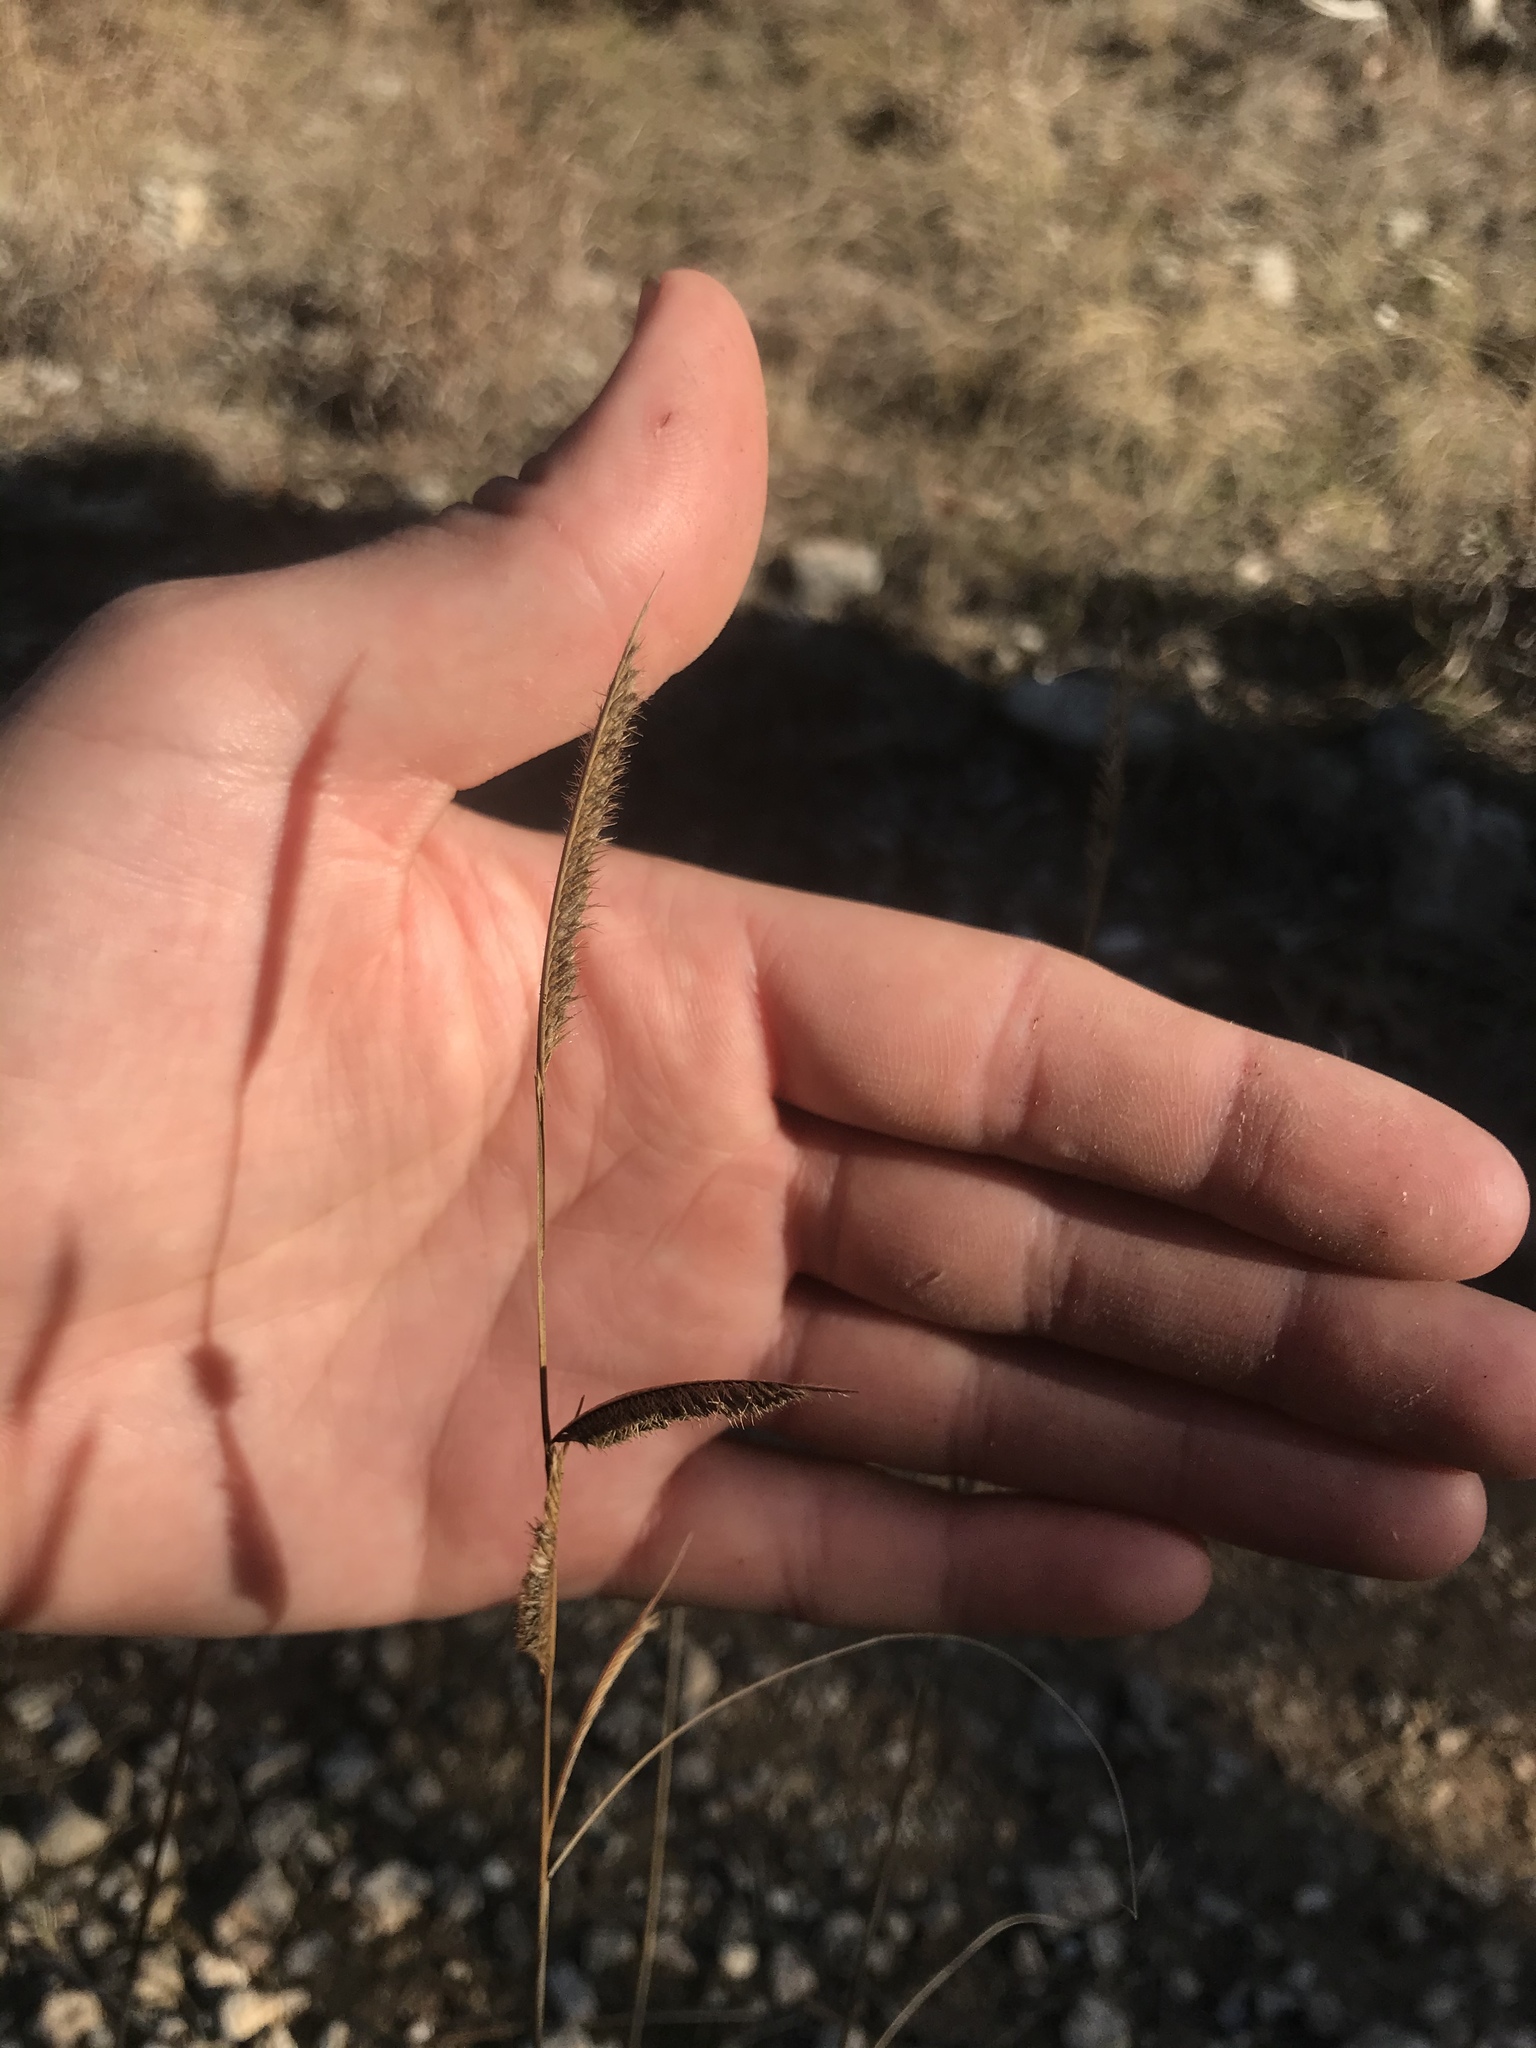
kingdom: Plantae
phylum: Tracheophyta
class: Liliopsida
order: Poales
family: Poaceae
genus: Bouteloua
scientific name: Bouteloua pectinata
